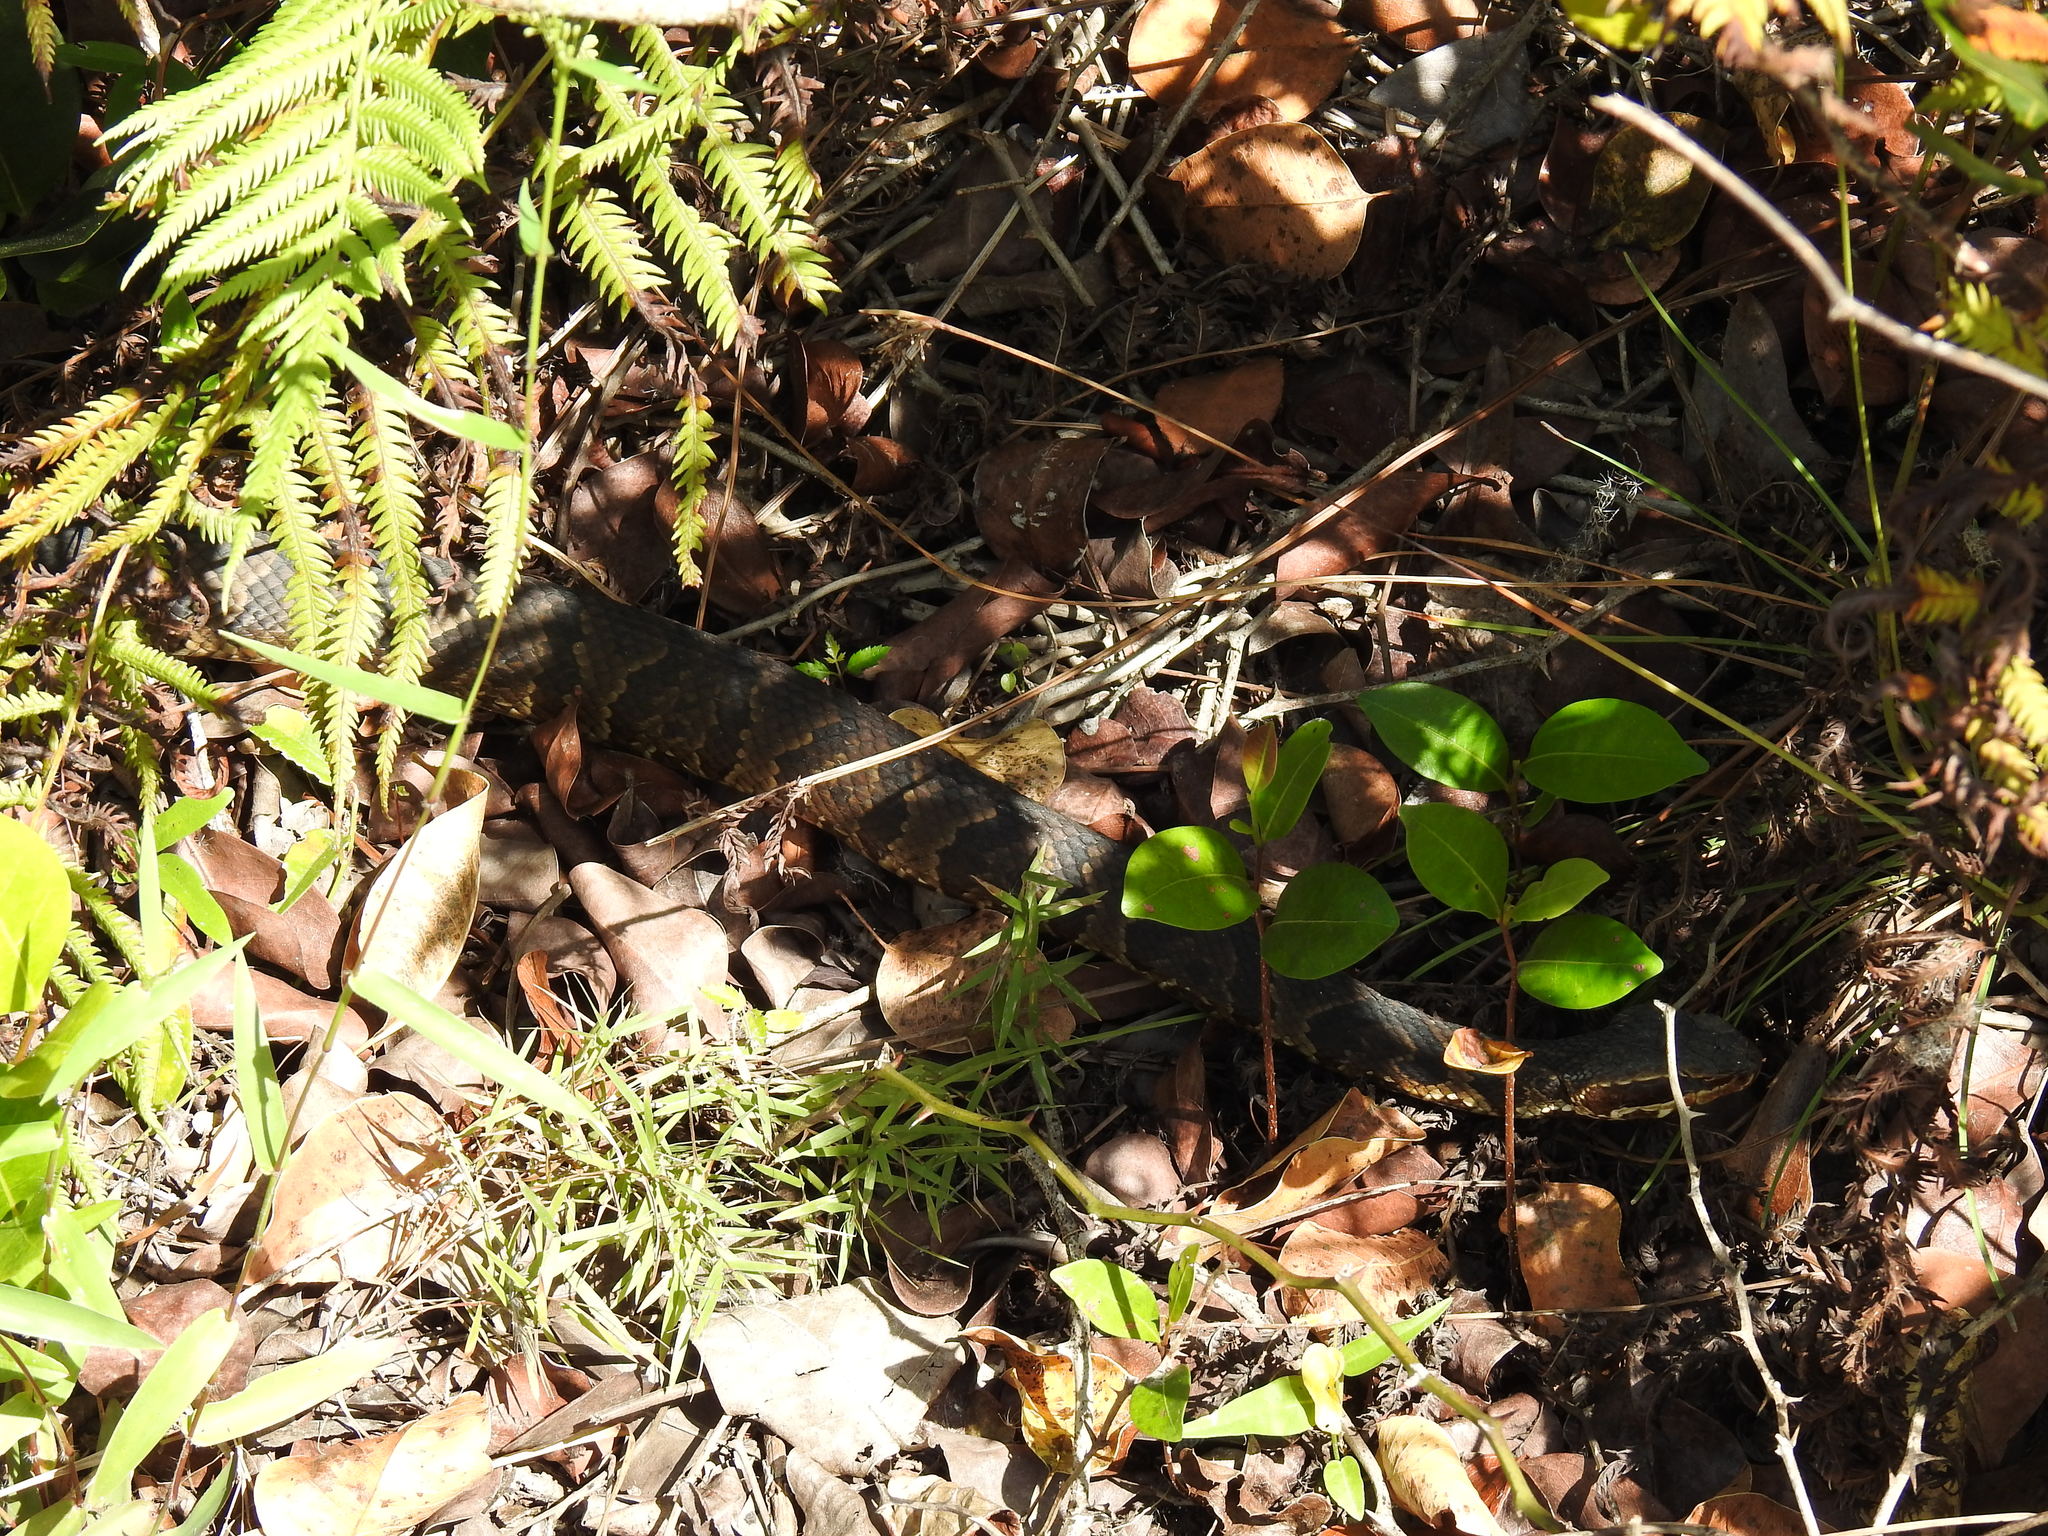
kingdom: Animalia
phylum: Chordata
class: Squamata
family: Viperidae
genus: Agkistrodon
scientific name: Agkistrodon conanti
